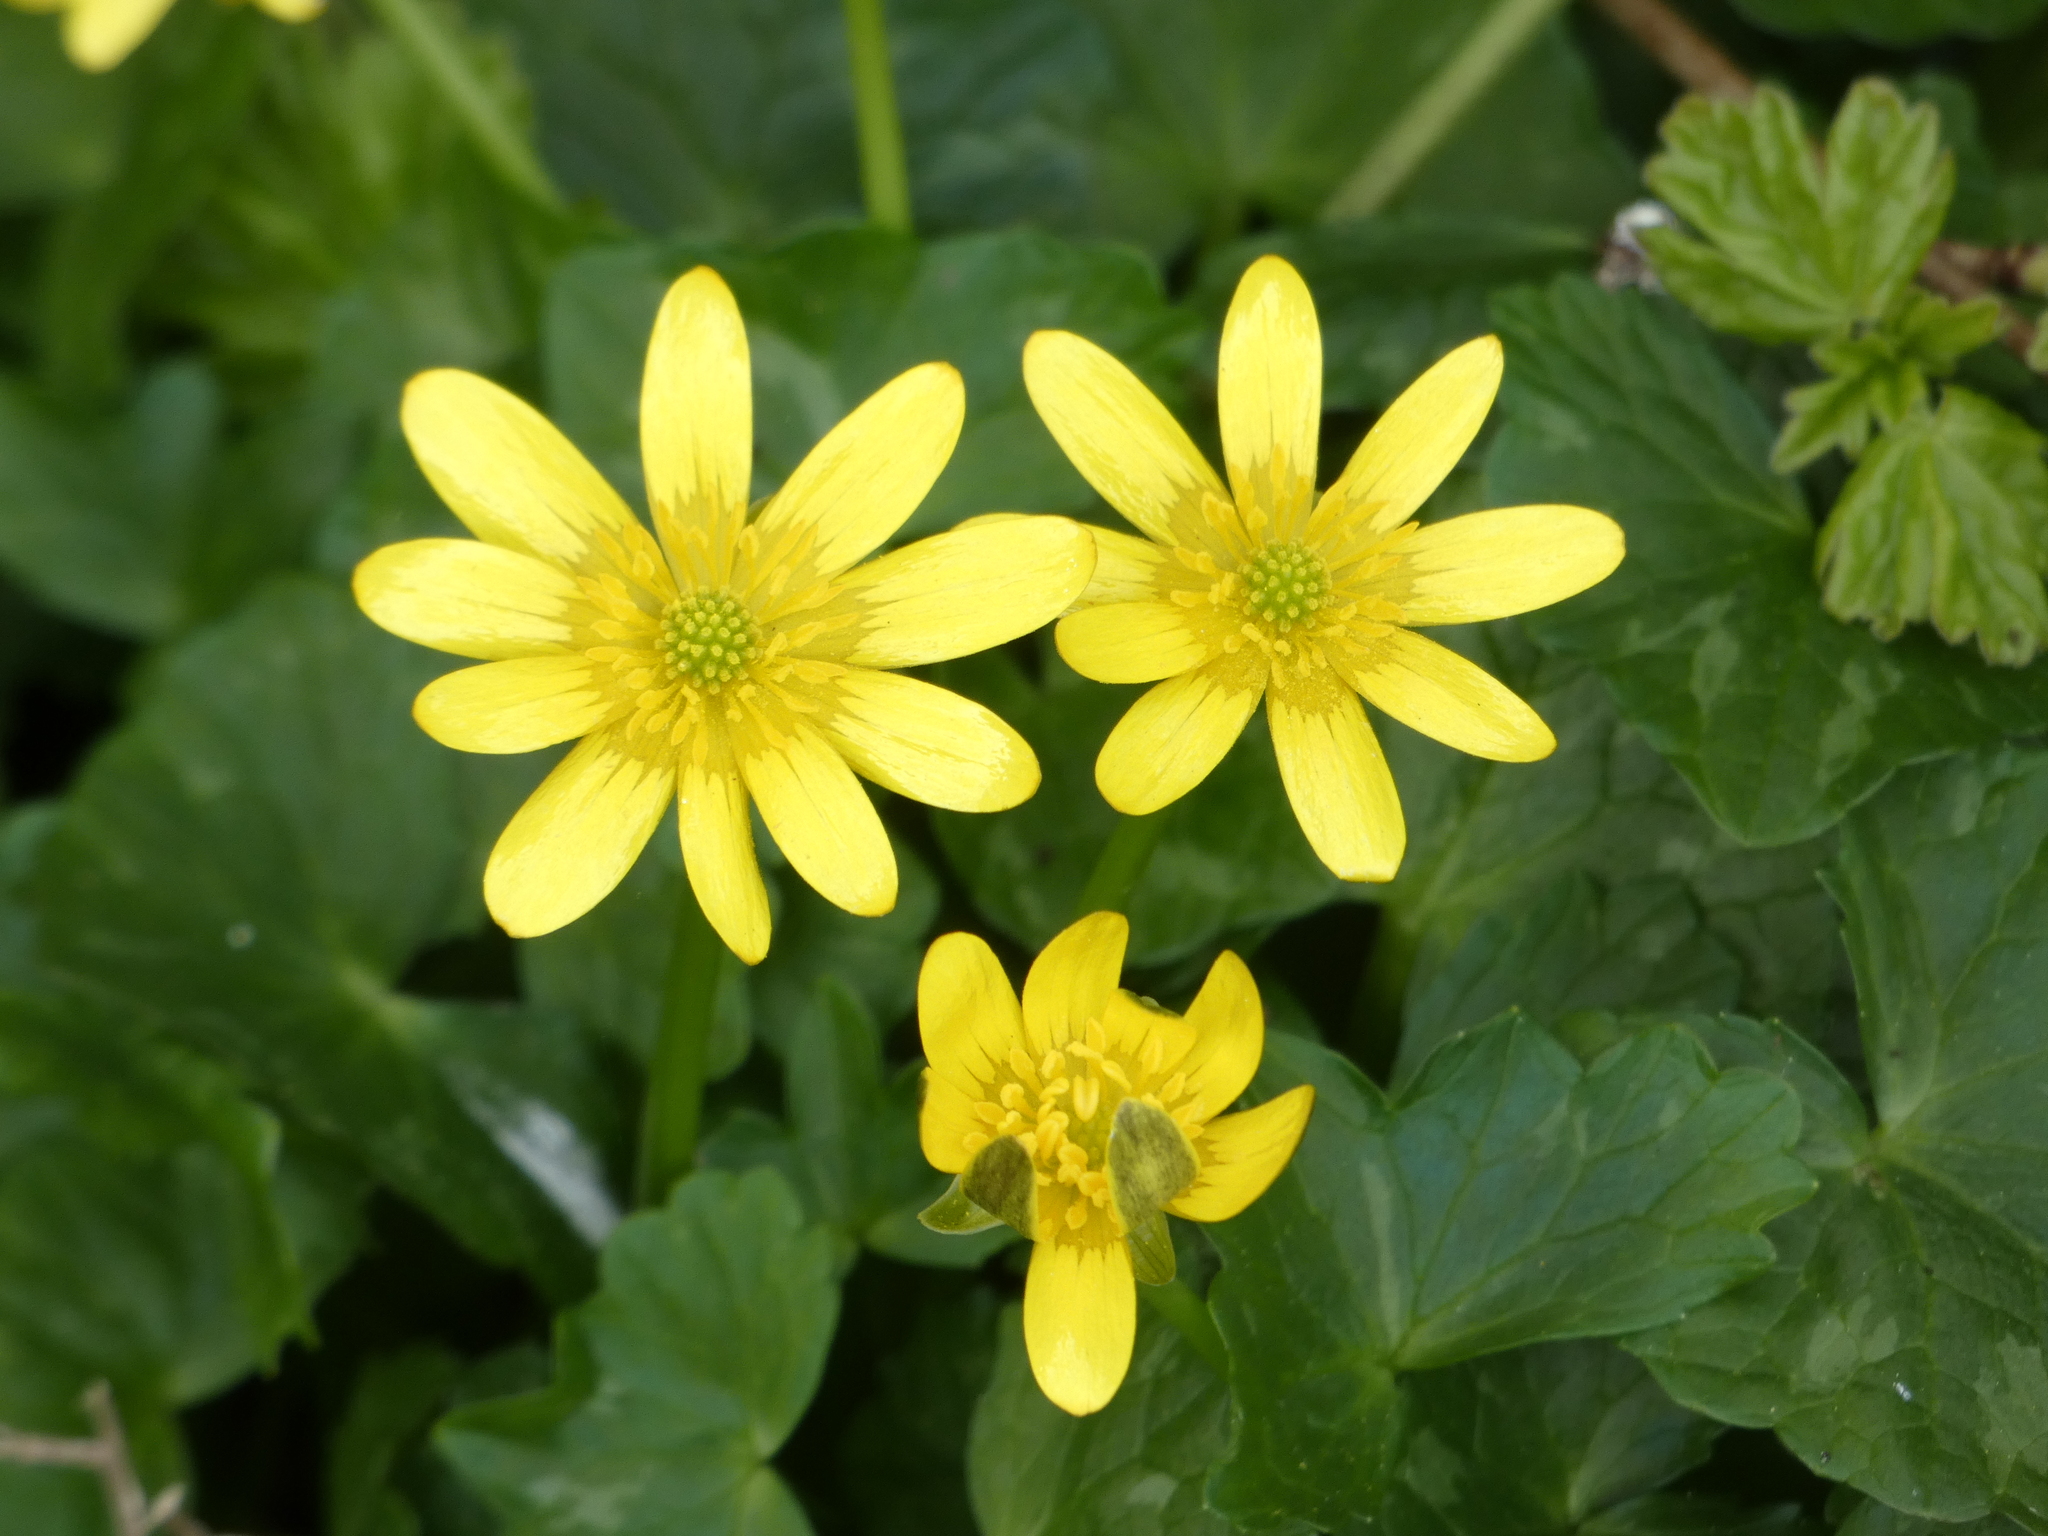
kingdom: Plantae
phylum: Tracheophyta
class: Magnoliopsida
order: Ranunculales
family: Ranunculaceae
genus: Ficaria
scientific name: Ficaria verna
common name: Lesser celandine
